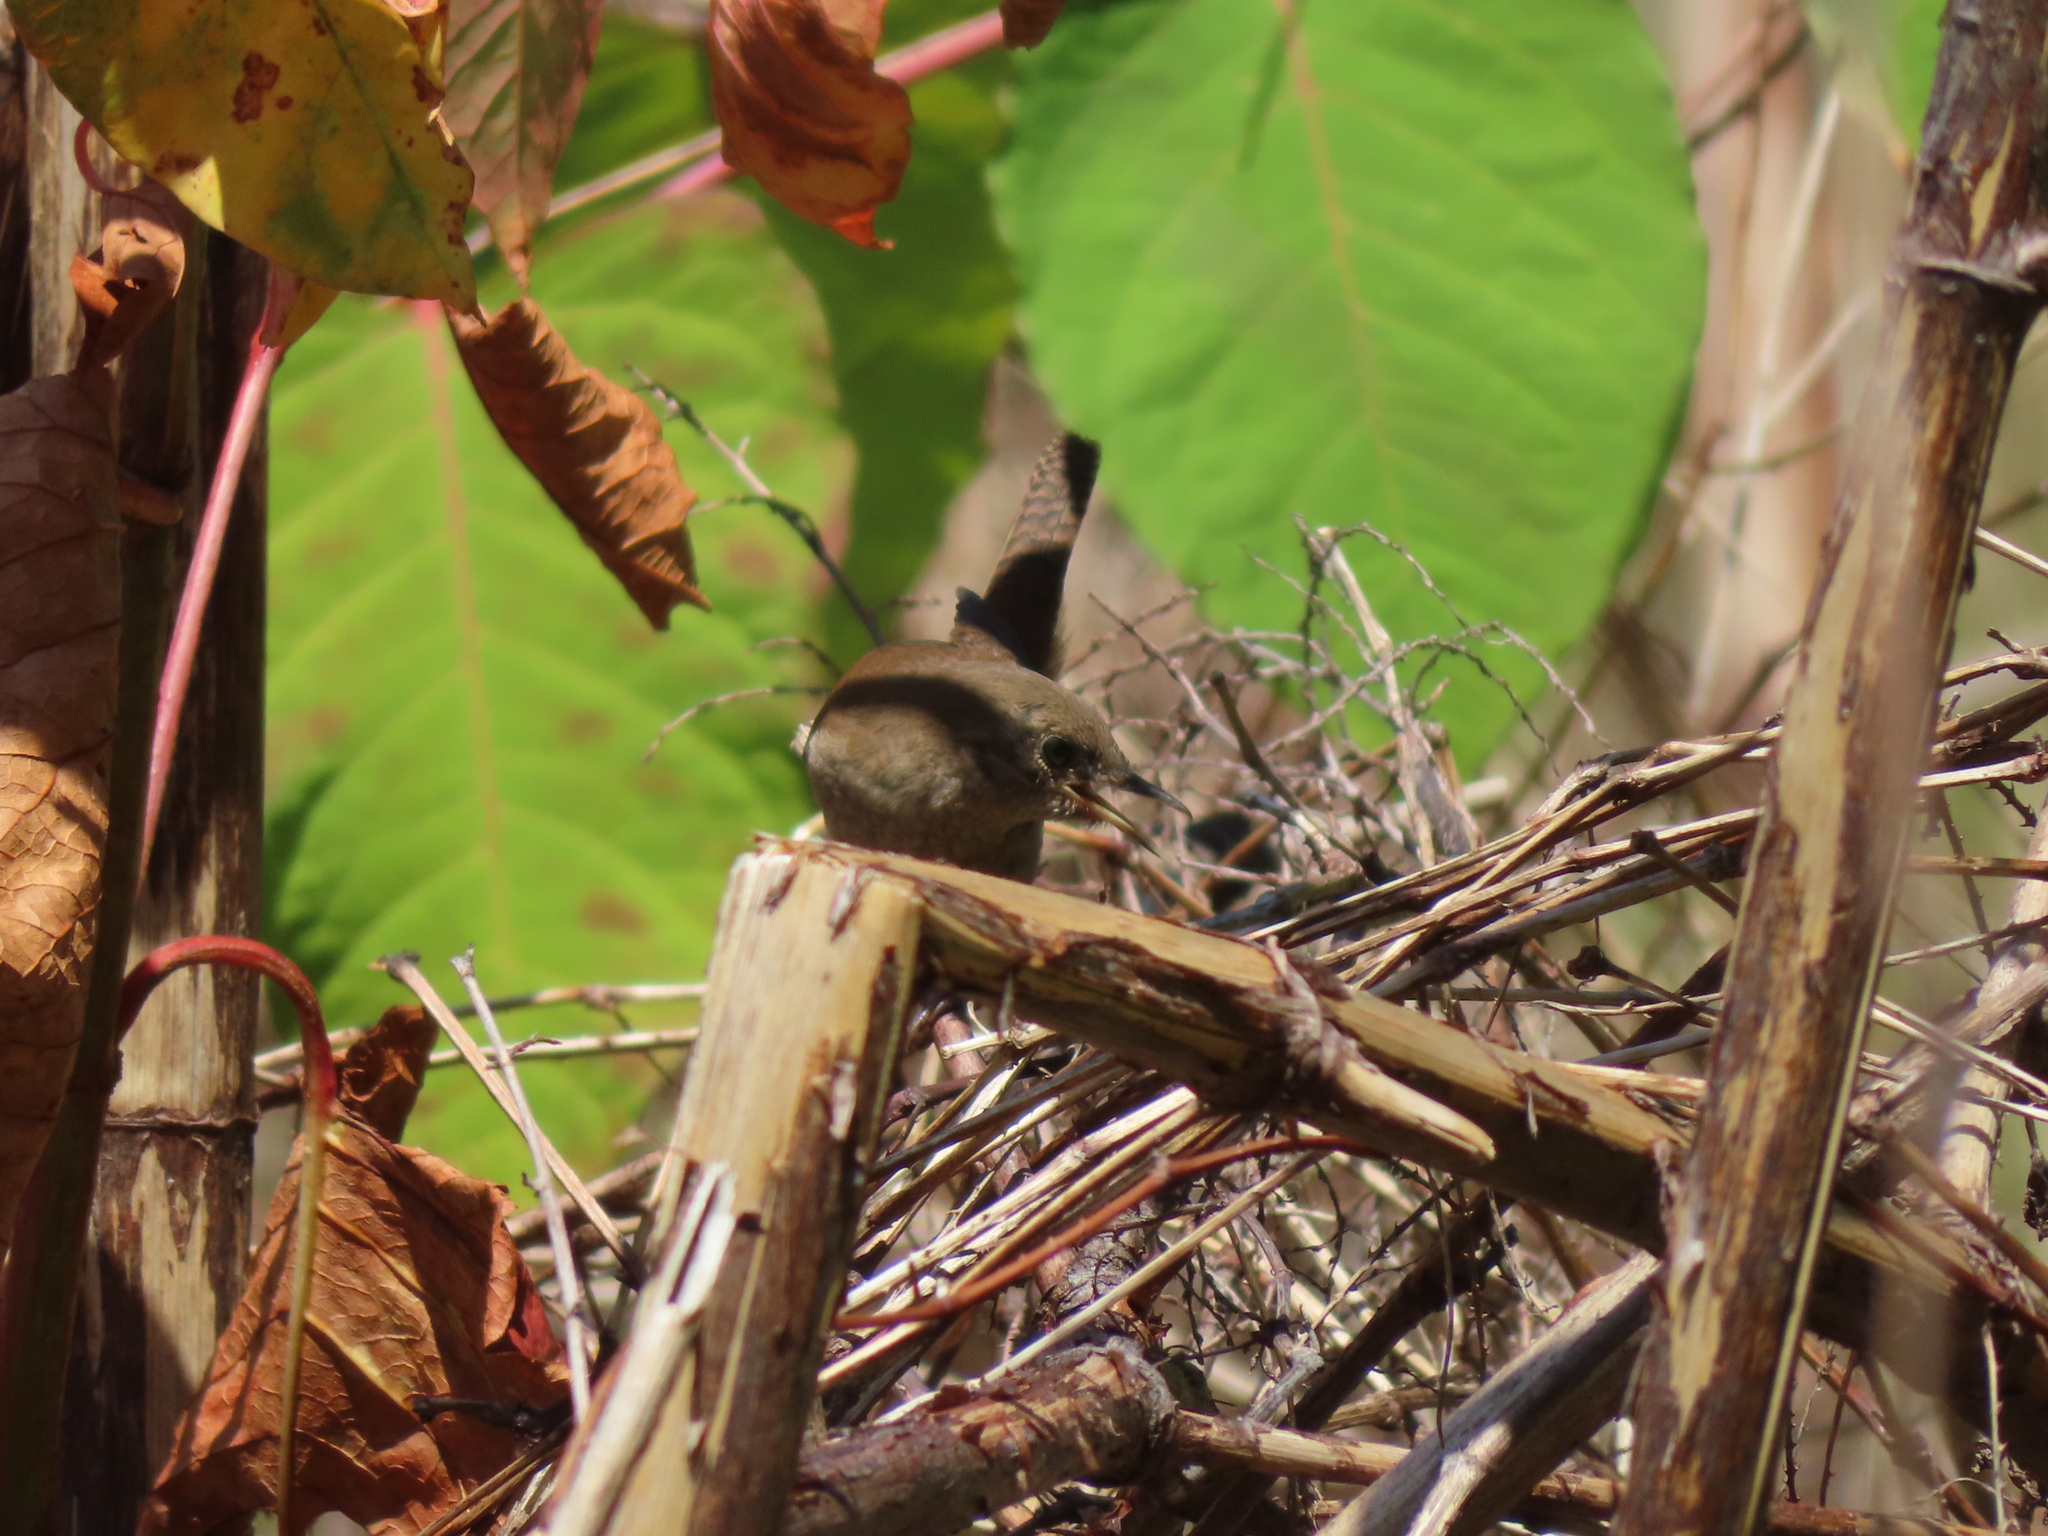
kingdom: Animalia
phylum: Chordata
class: Aves
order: Passeriformes
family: Troglodytidae
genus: Troglodytes
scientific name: Troglodytes aedon
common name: House wren
